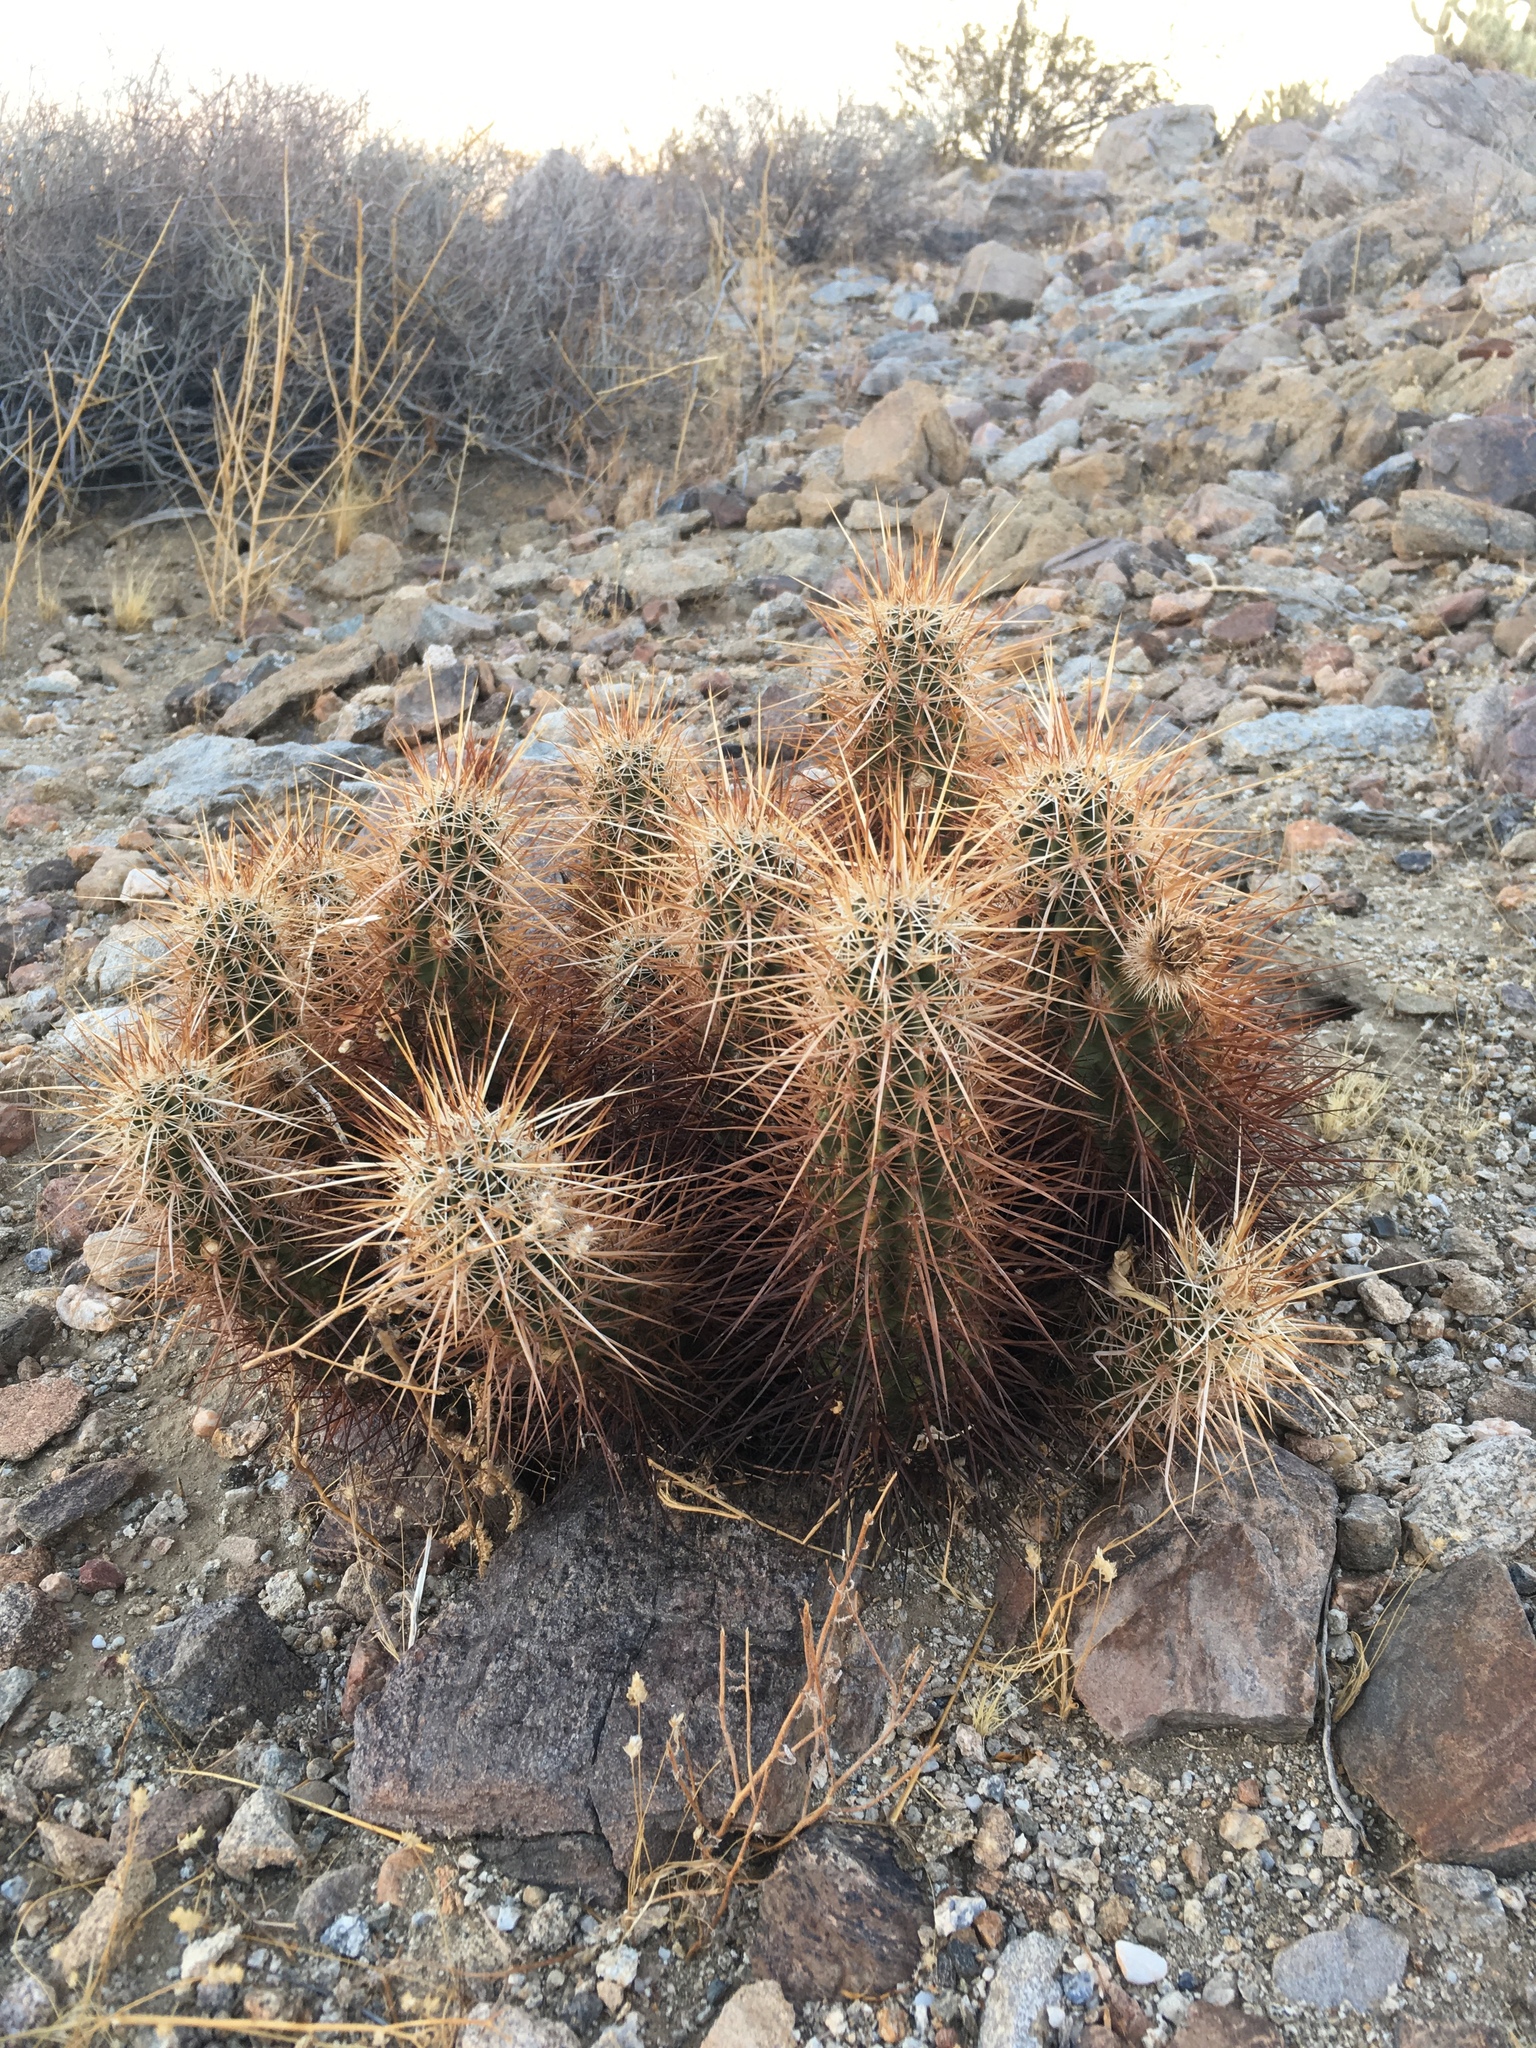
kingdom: Plantae
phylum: Tracheophyta
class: Magnoliopsida
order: Caryophyllales
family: Cactaceae
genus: Echinocereus
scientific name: Echinocereus engelmannii
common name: Engelmann's hedgehog cactus
